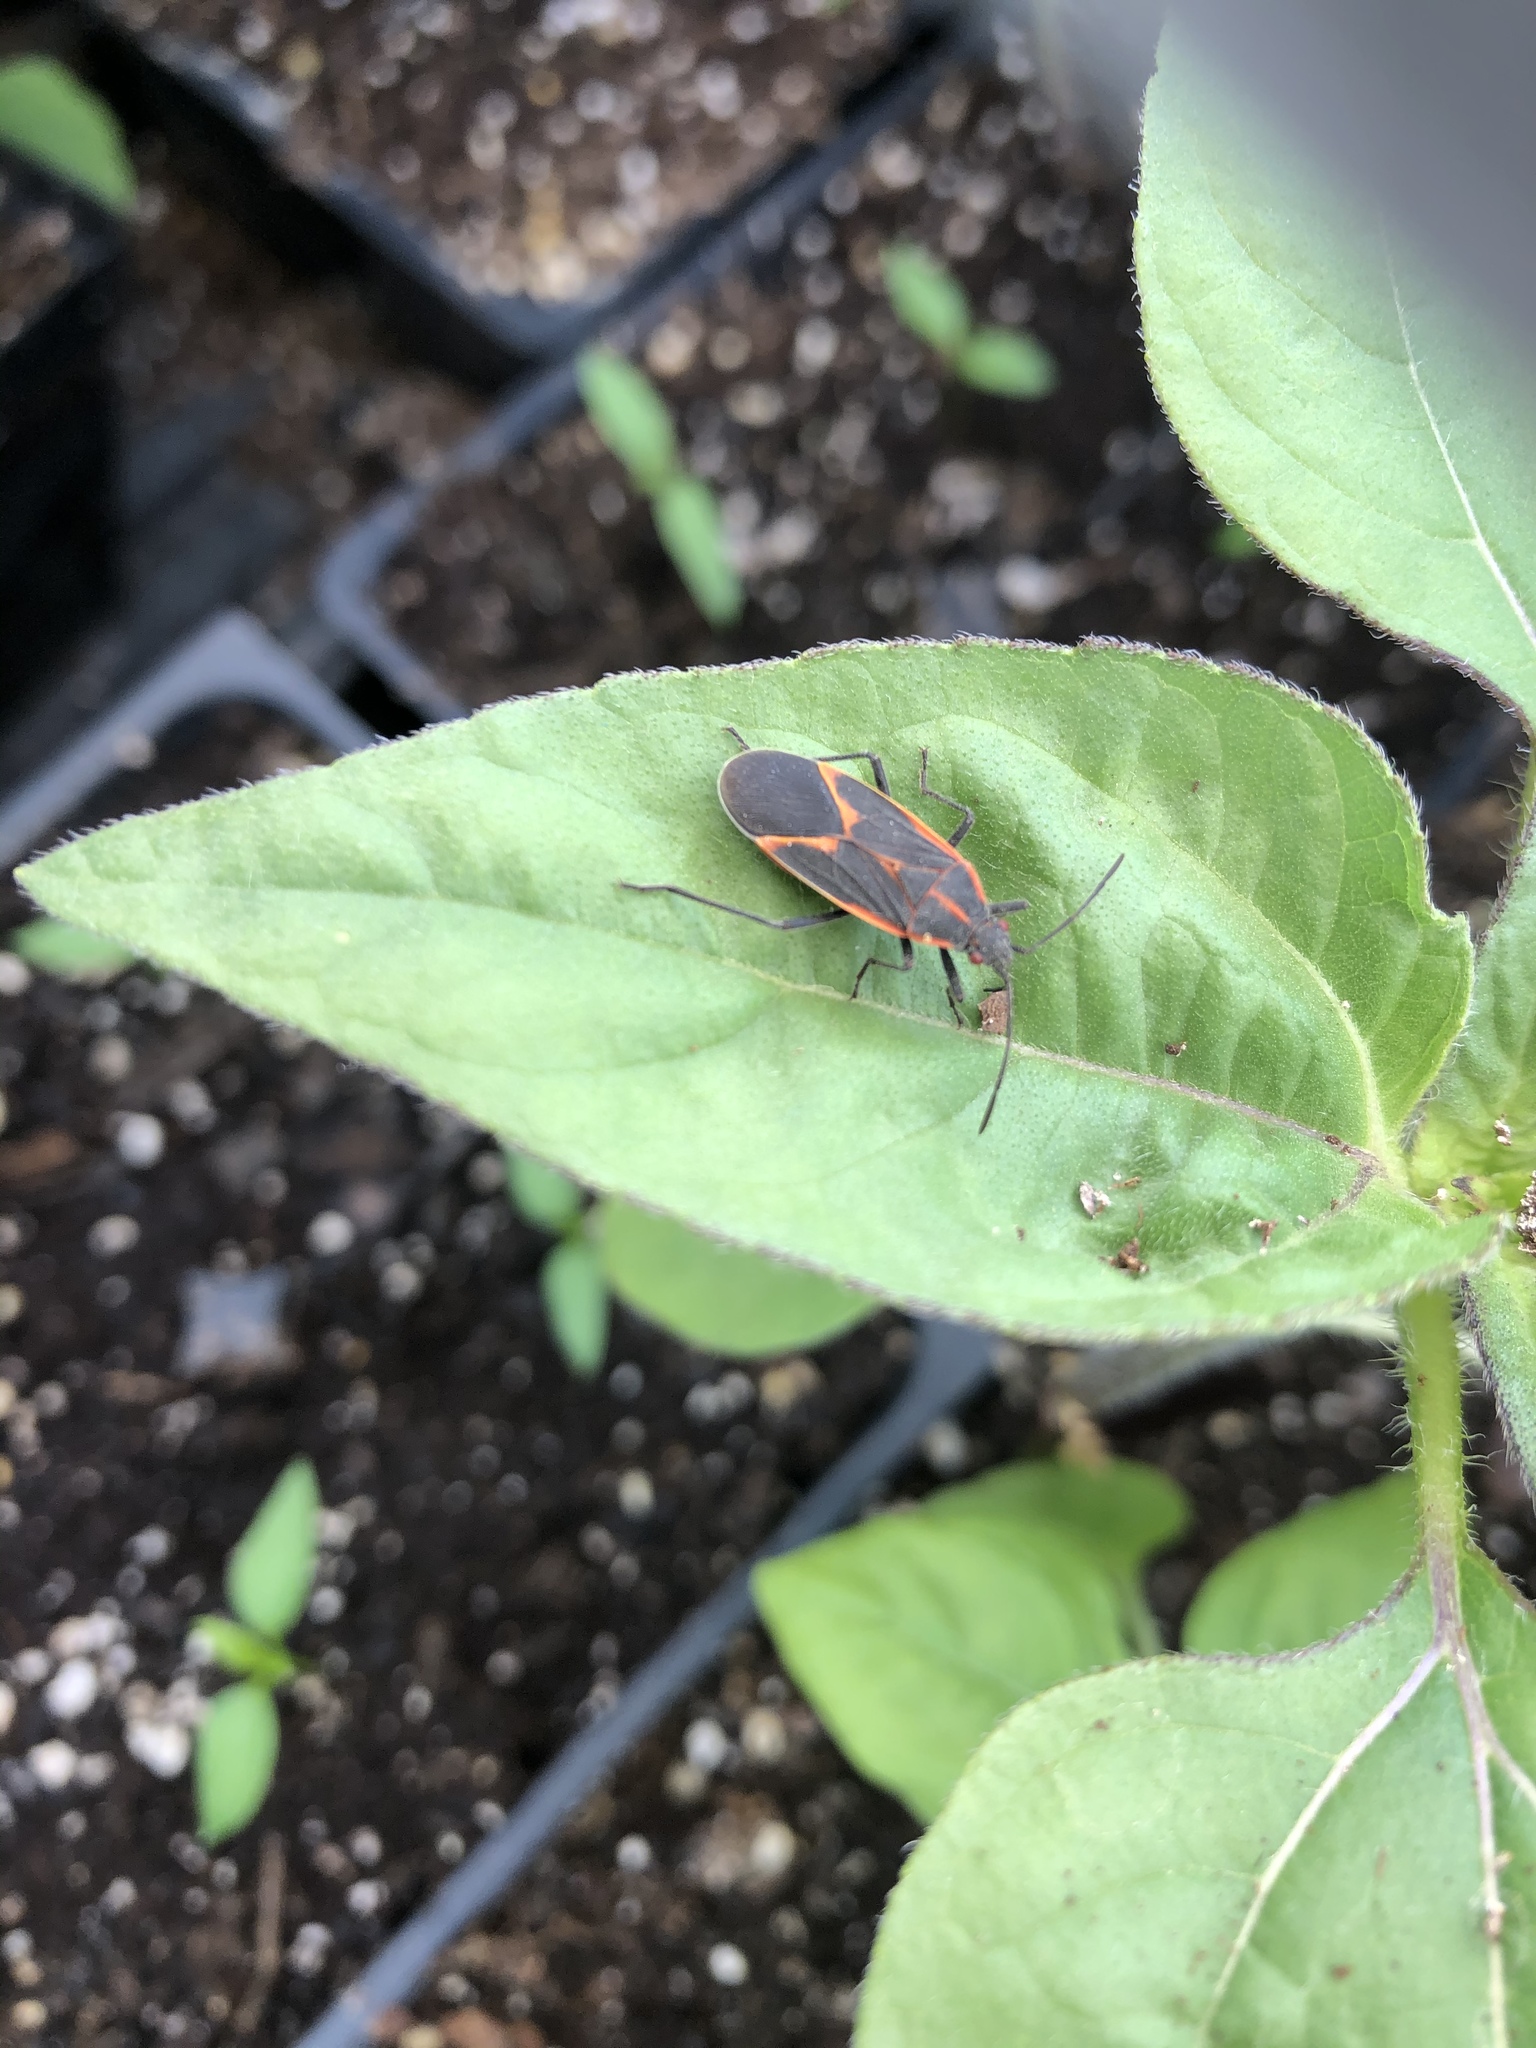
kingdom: Animalia
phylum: Arthropoda
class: Insecta
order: Hemiptera
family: Rhopalidae
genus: Boisea
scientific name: Boisea trivittata
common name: Boxelder bug
